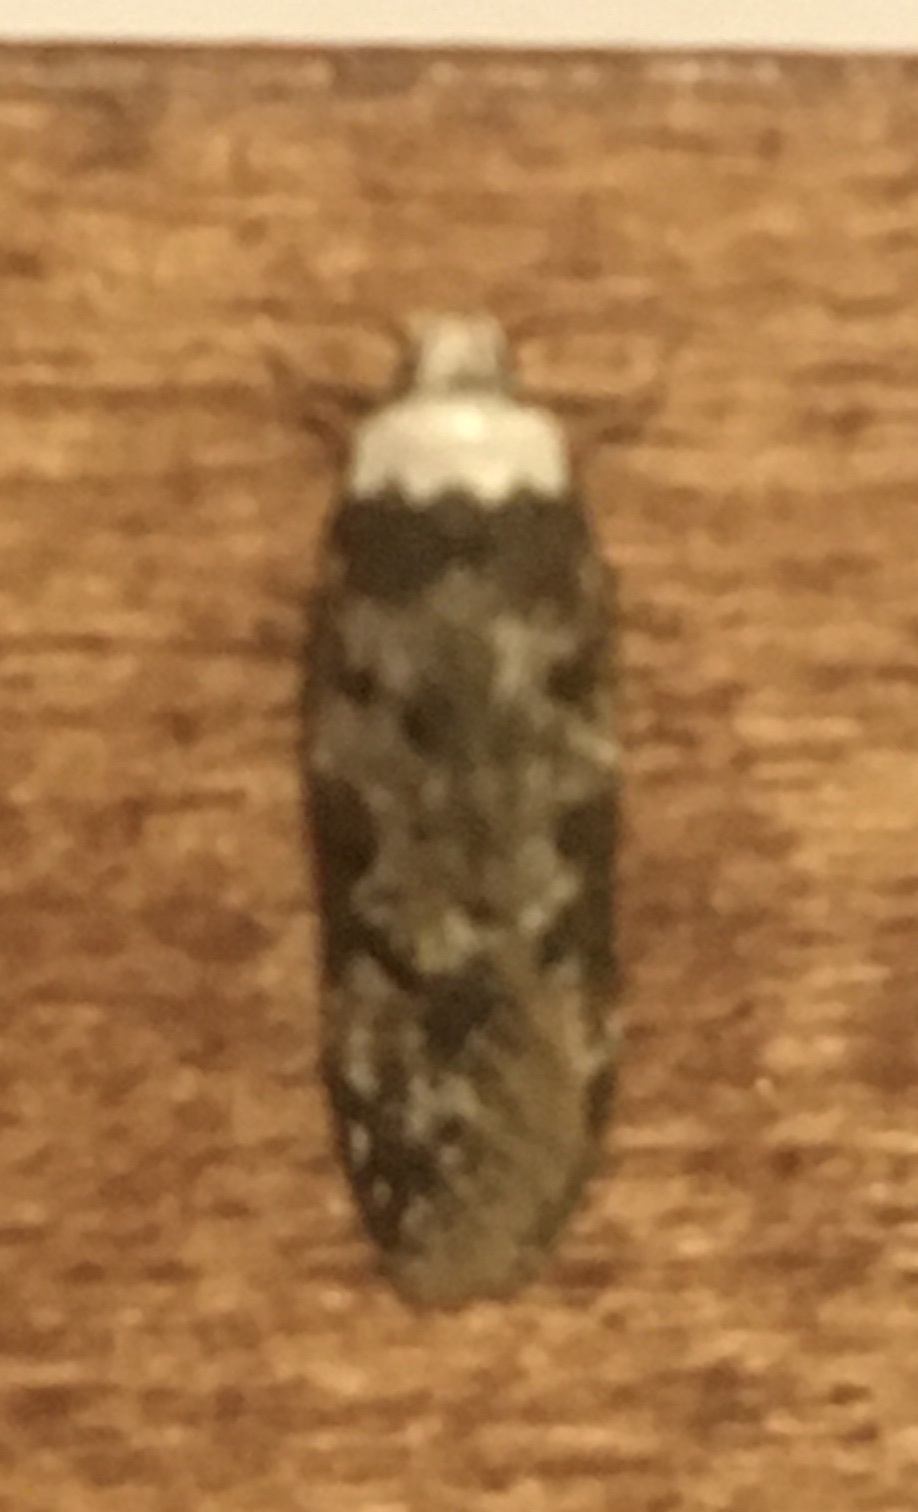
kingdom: Animalia
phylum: Arthropoda
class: Insecta
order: Lepidoptera
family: Oecophoridae
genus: Endrosis
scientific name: Endrosis sarcitrella
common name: White-shouldered house moth
